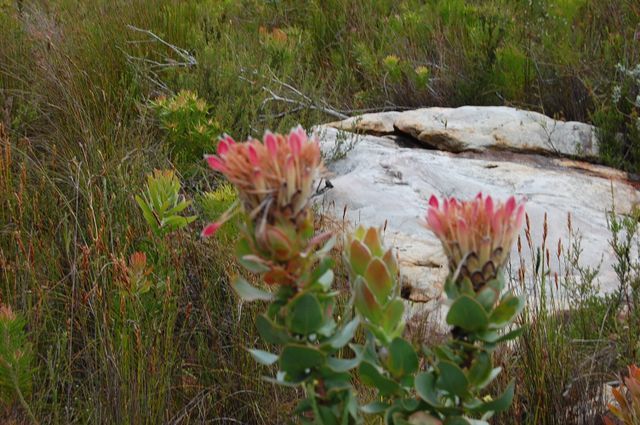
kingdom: Plantae
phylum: Tracheophyta
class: Magnoliopsida
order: Proteales
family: Proteaceae
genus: Protea
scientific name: Protea eximia
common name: Broad-leaved sugarbush
